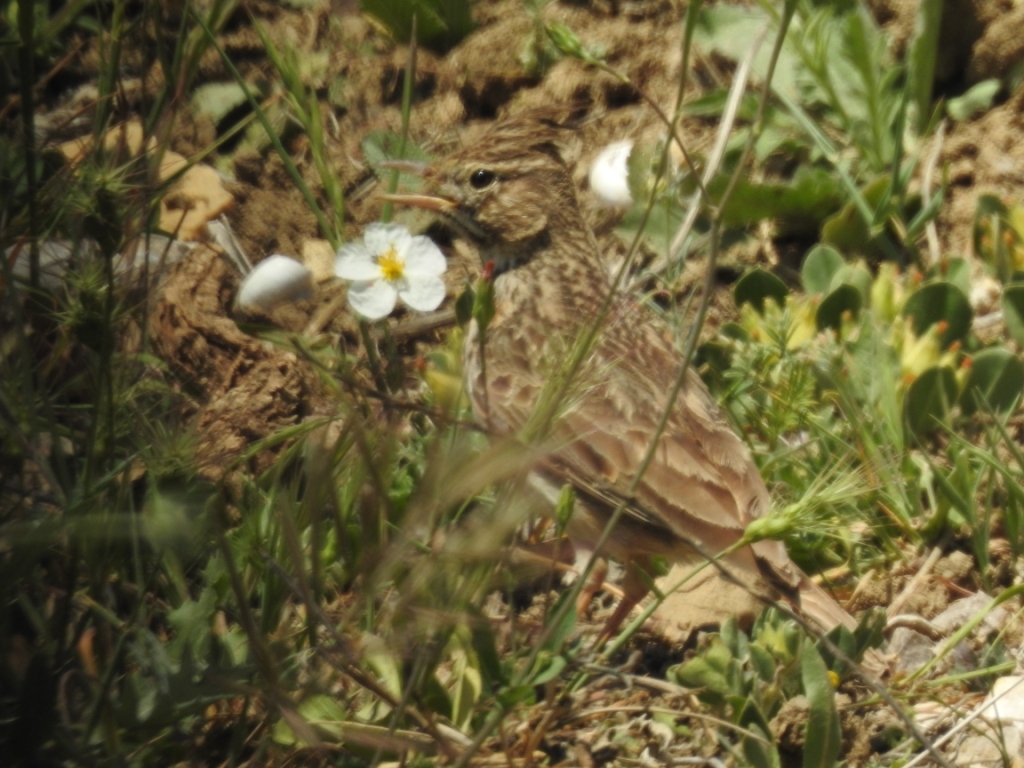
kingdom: Animalia
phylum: Chordata
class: Aves
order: Passeriformes
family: Alaudidae
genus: Galerida
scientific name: Galerida cristata
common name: Crested lark
